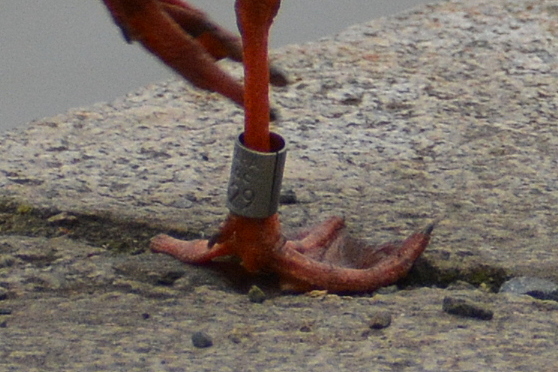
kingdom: Animalia
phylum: Chordata
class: Aves
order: Charadriiformes
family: Laridae
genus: Chroicocephalus
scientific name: Chroicocephalus ridibundus
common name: Black-headed gull
